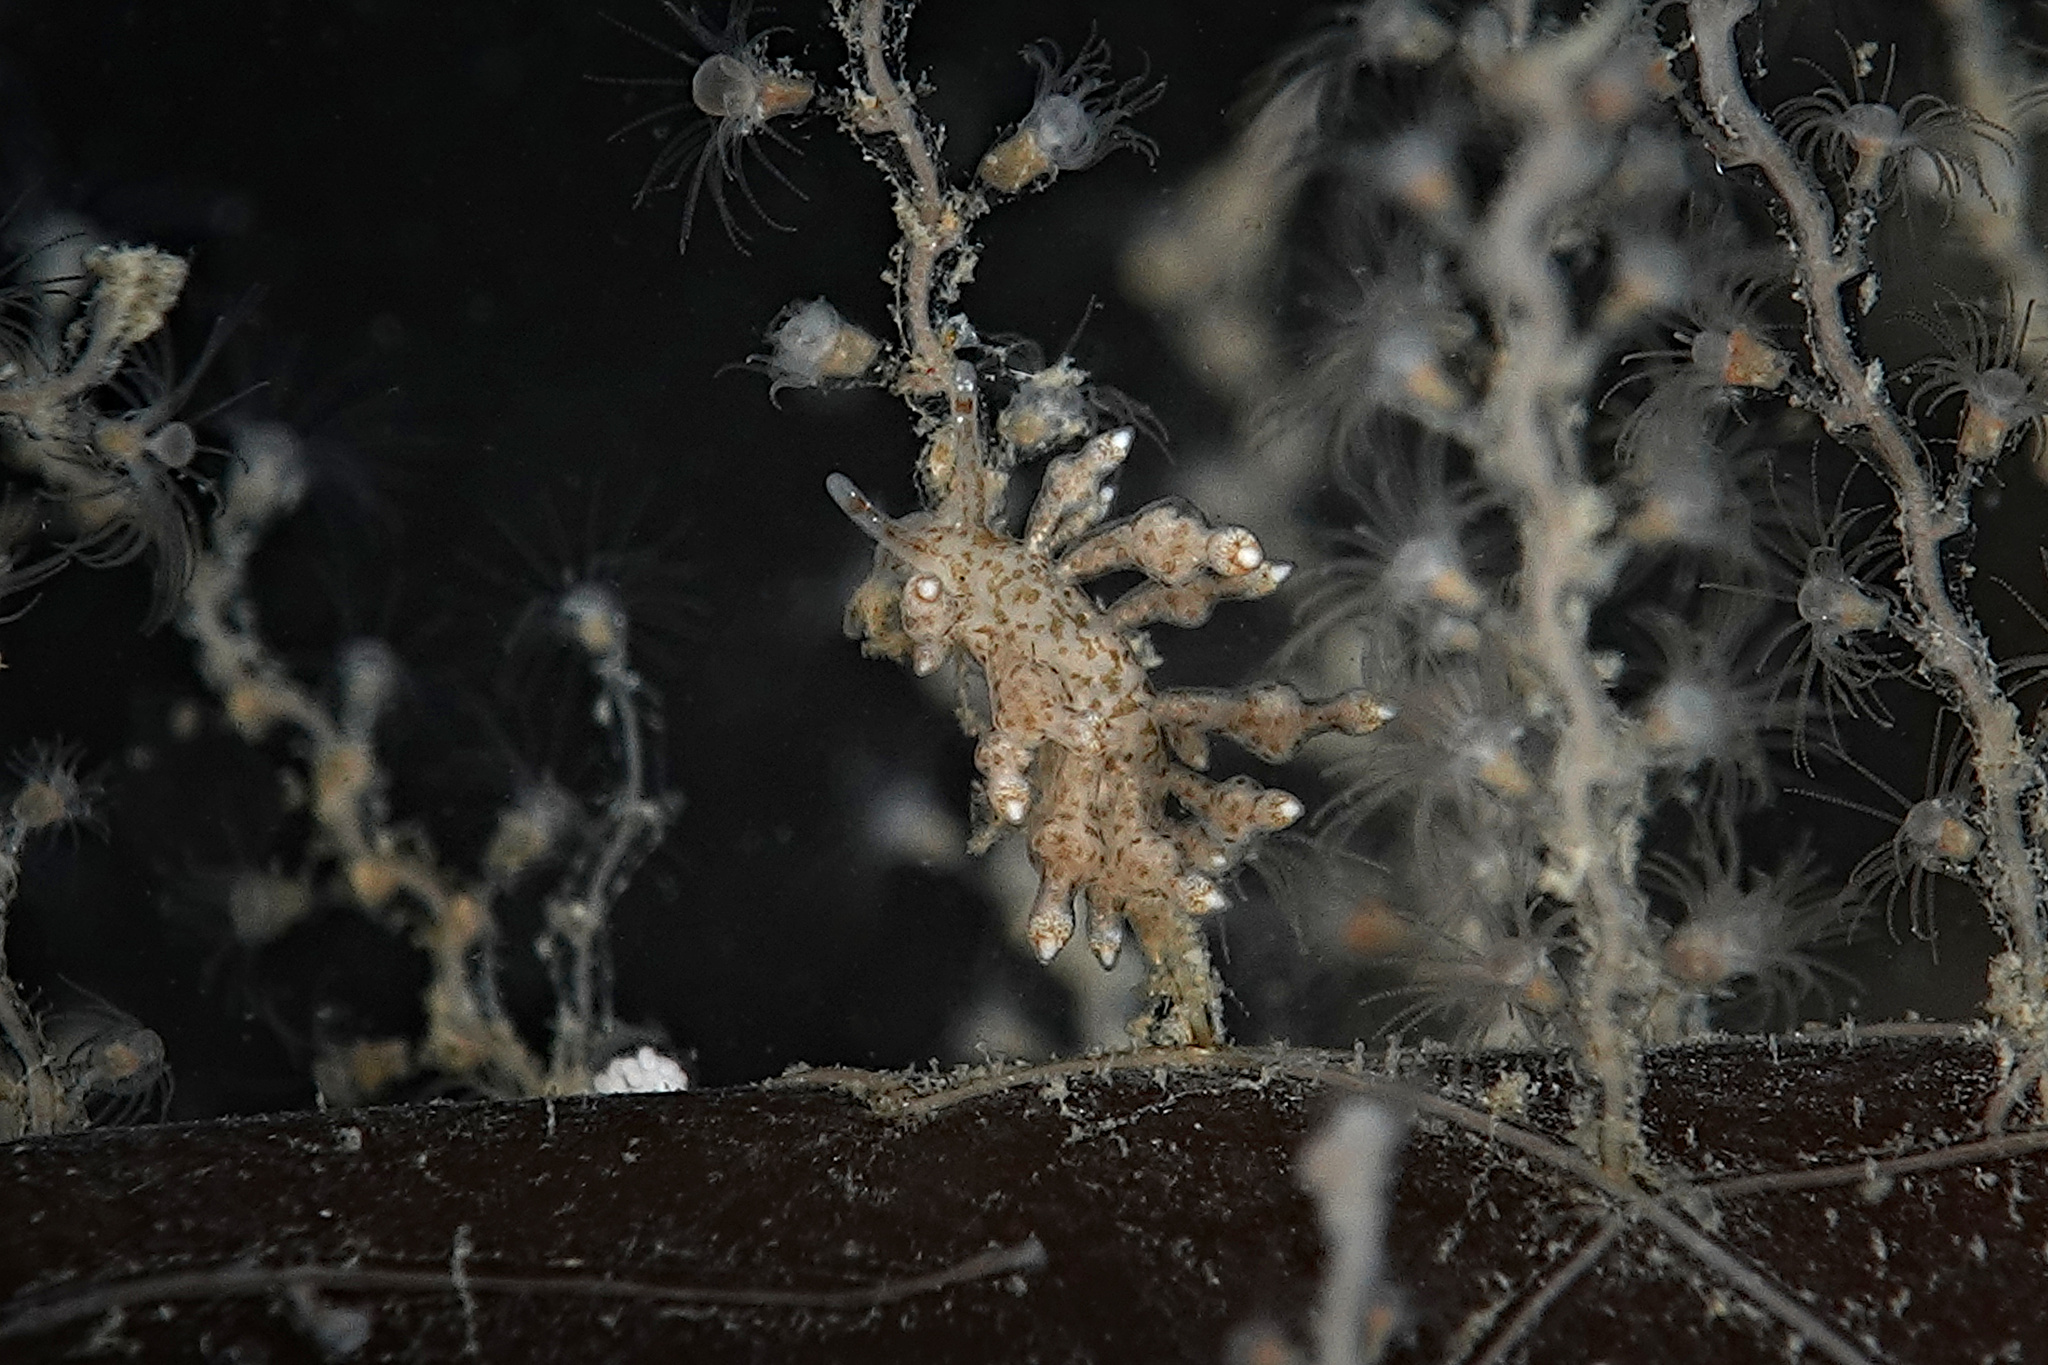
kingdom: Animalia
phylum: Mollusca
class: Gastropoda
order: Nudibranchia
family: Eubranchidae
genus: Eubranchus
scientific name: Eubranchus scintillans
